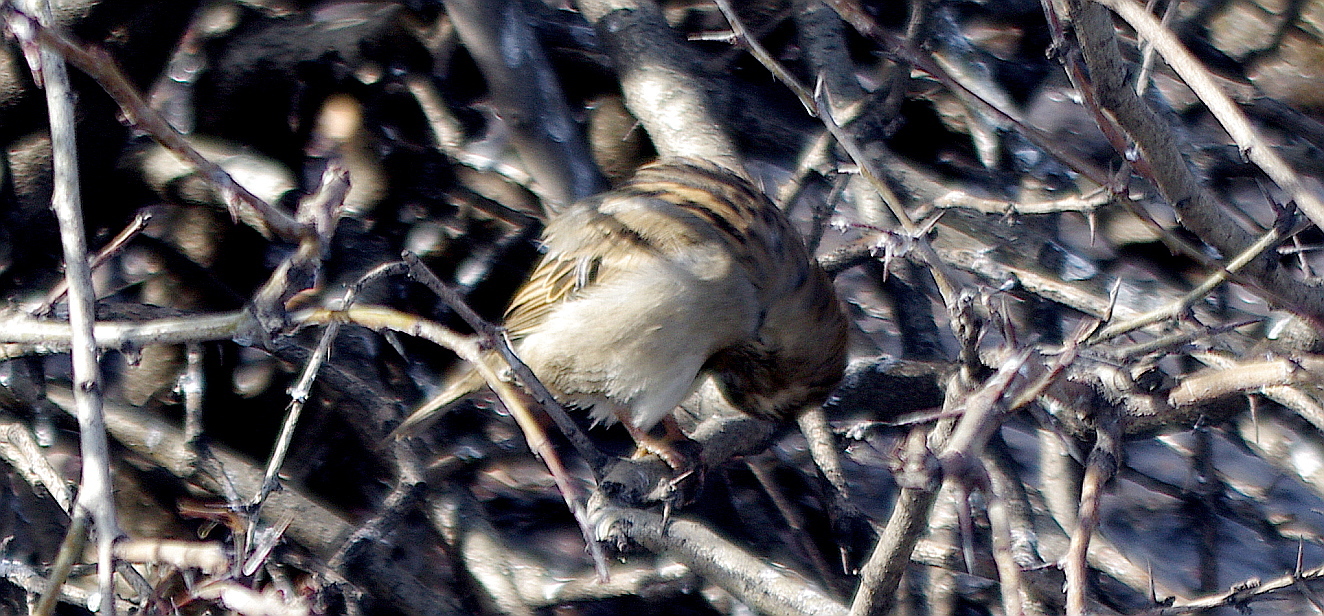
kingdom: Animalia
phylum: Chordata
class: Aves
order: Passeriformes
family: Passeridae
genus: Passer
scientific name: Passer domesticus
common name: House sparrow
